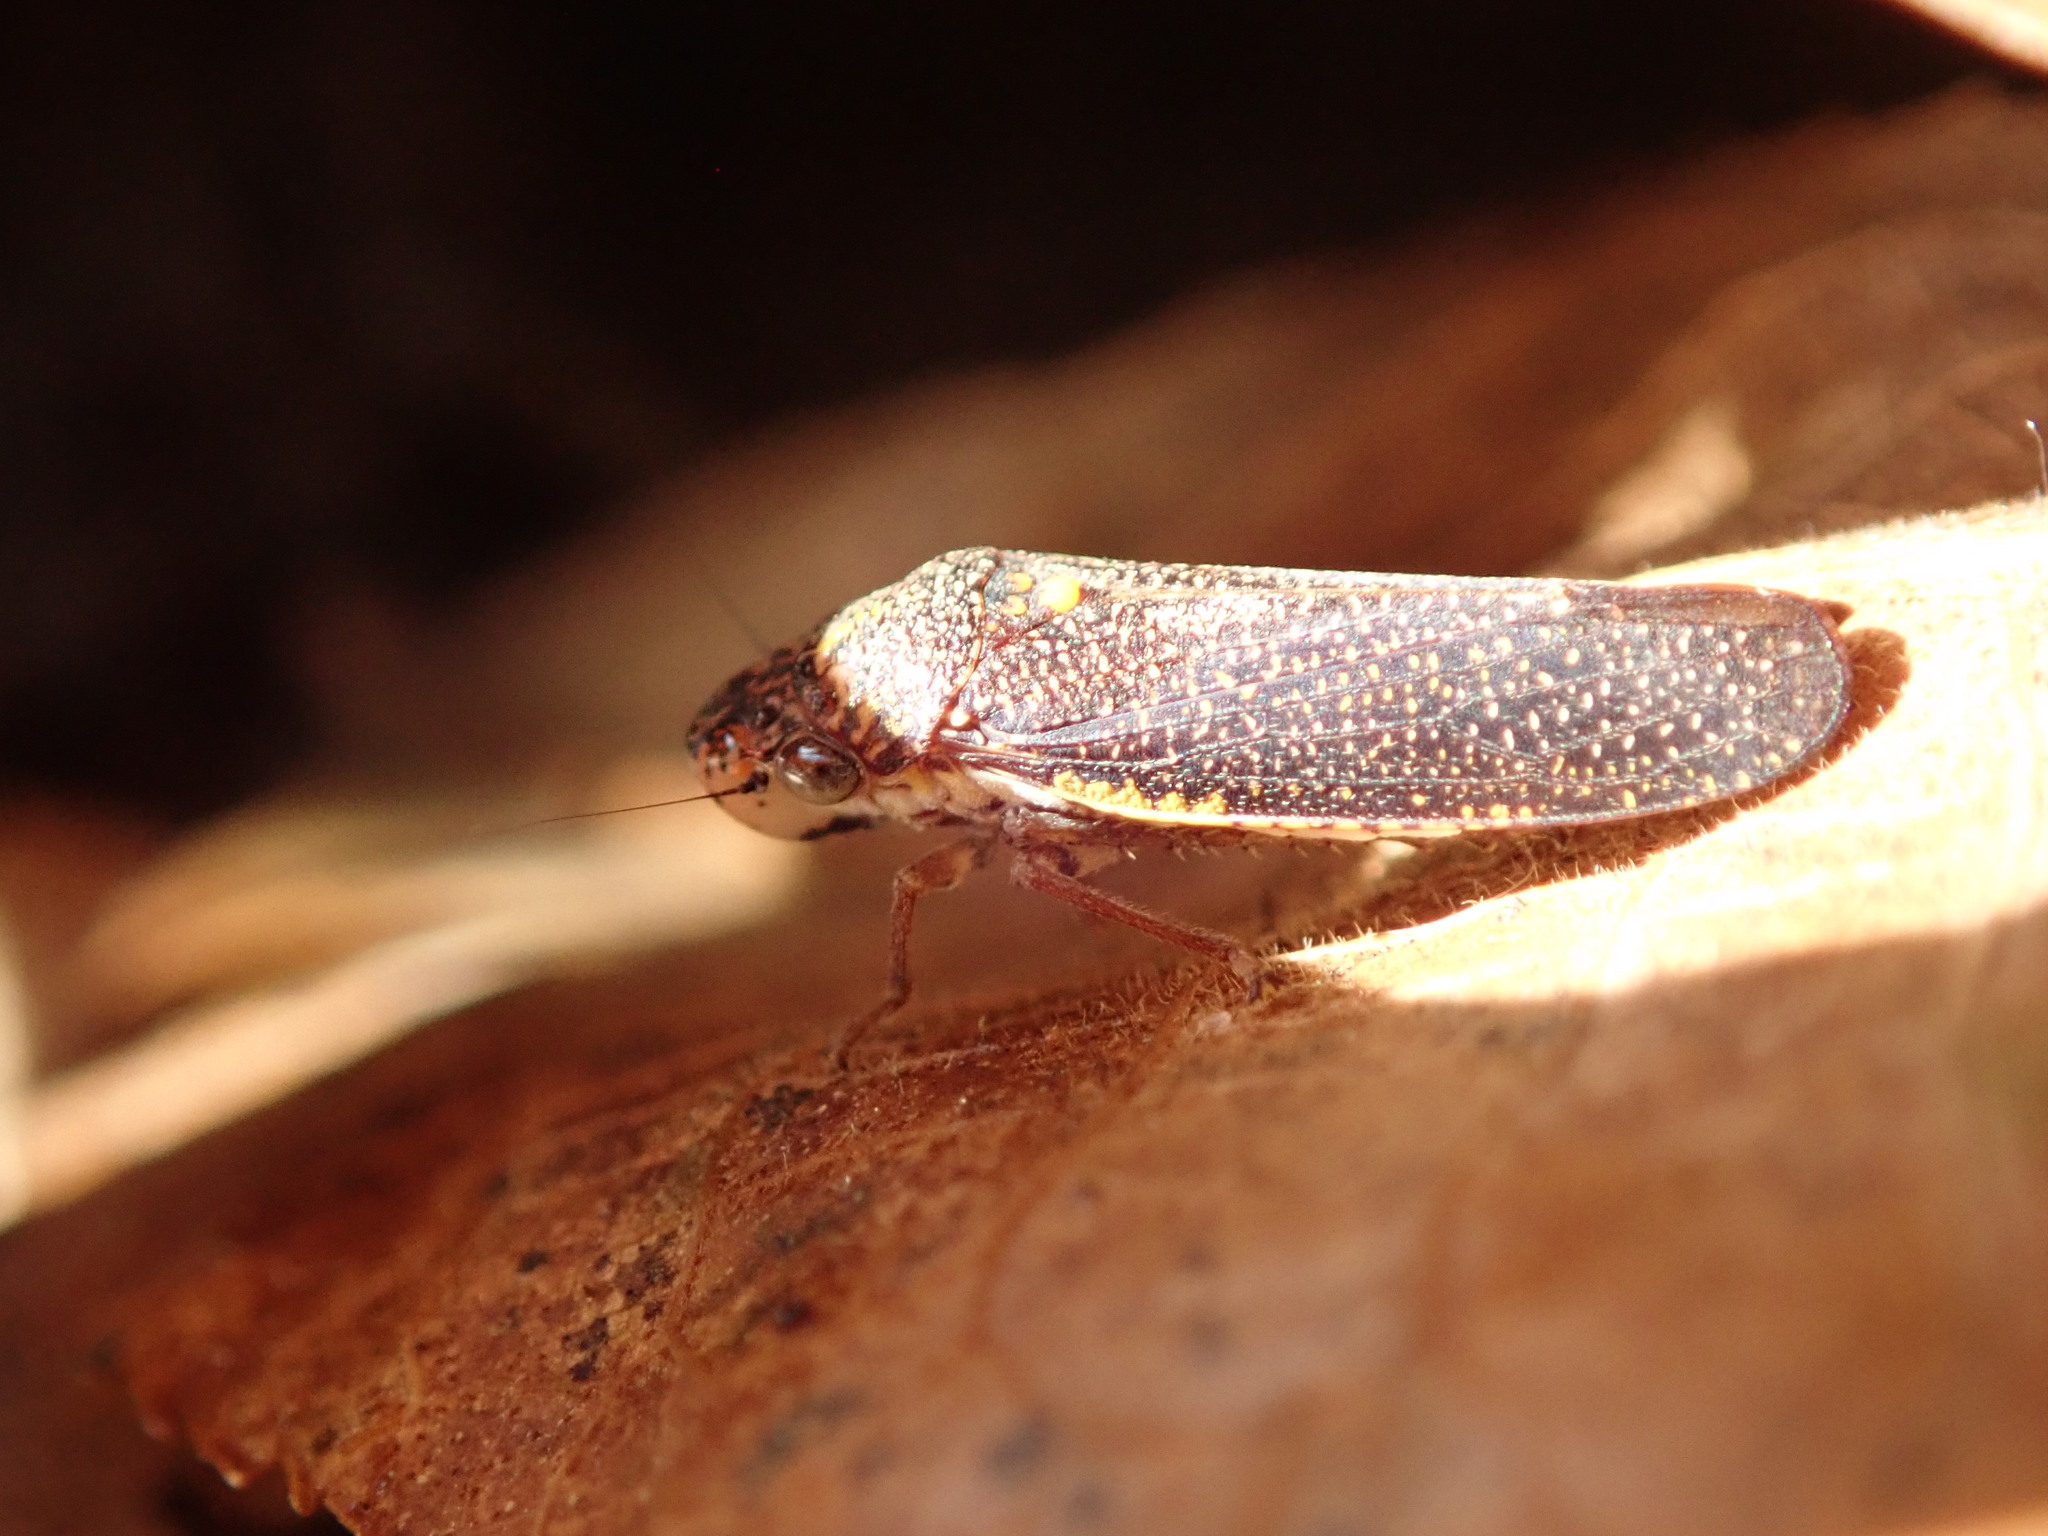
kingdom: Animalia
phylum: Arthropoda
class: Insecta
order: Hemiptera
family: Cicadellidae
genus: Paraulacizes
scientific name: Paraulacizes irrorata
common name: Speckled sharpshooter
